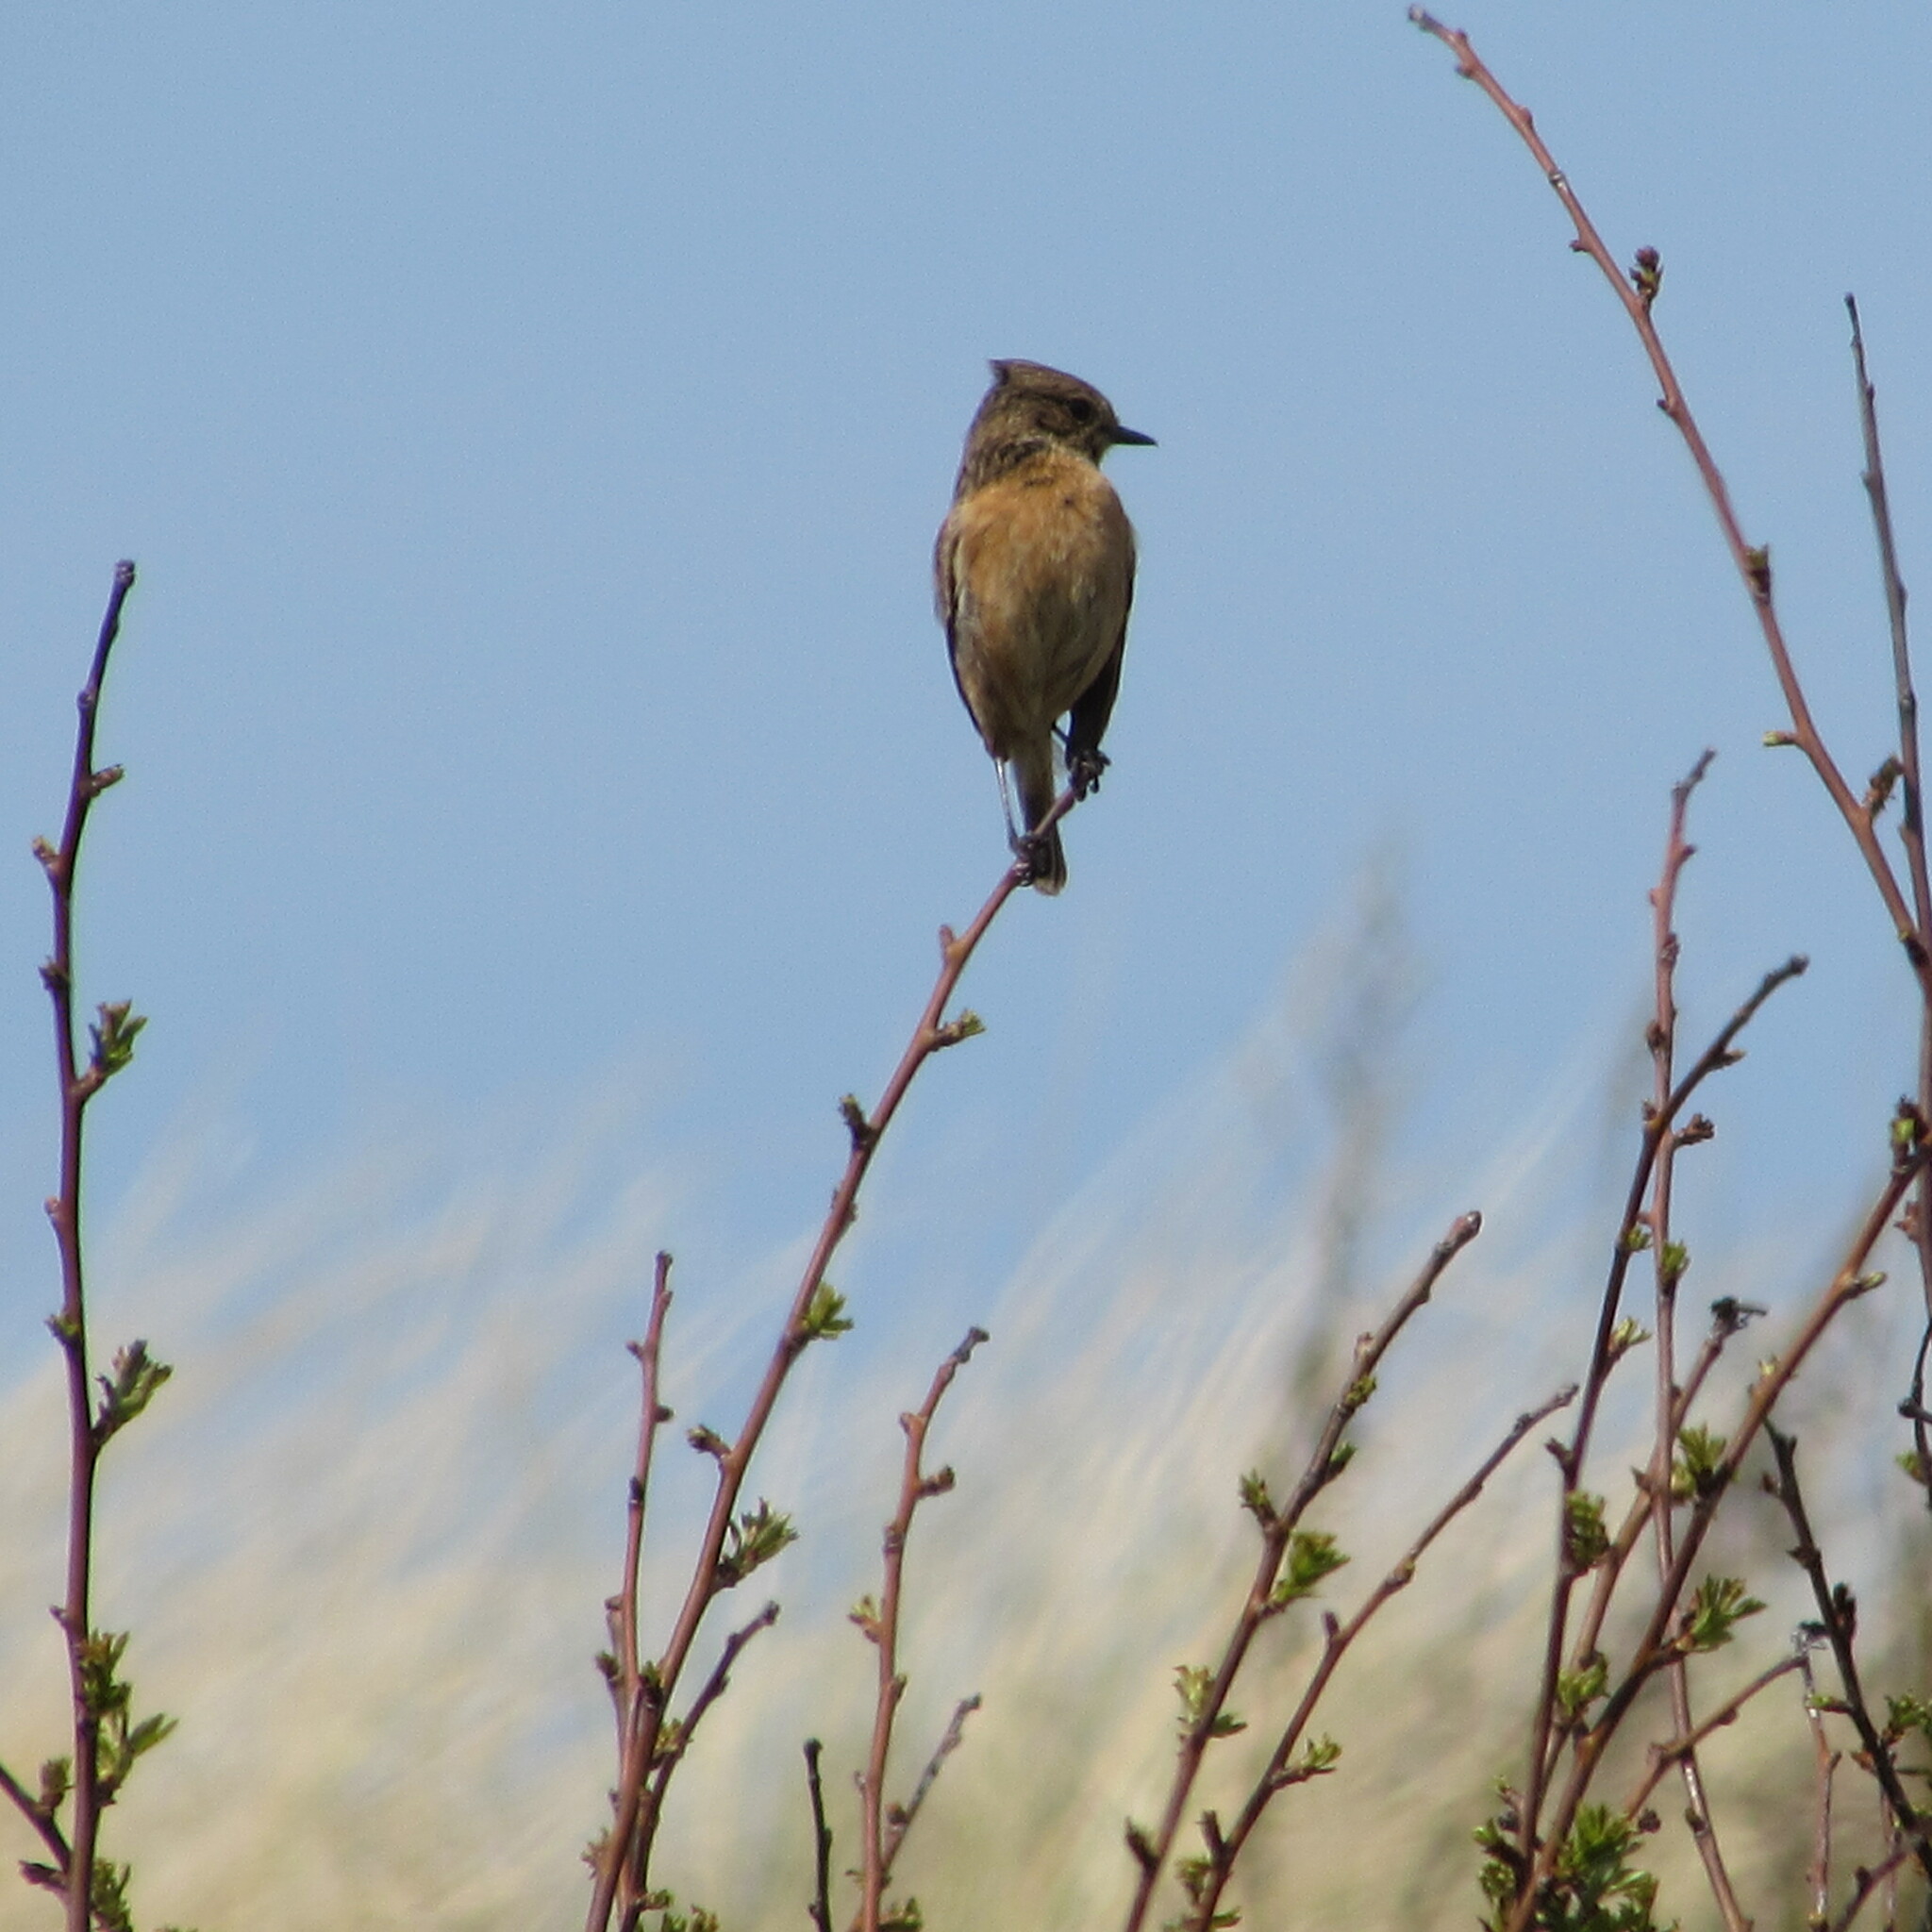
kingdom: Animalia
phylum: Chordata
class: Aves
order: Passeriformes
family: Muscicapidae
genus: Saxicola
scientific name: Saxicola rubicola
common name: European stonechat
